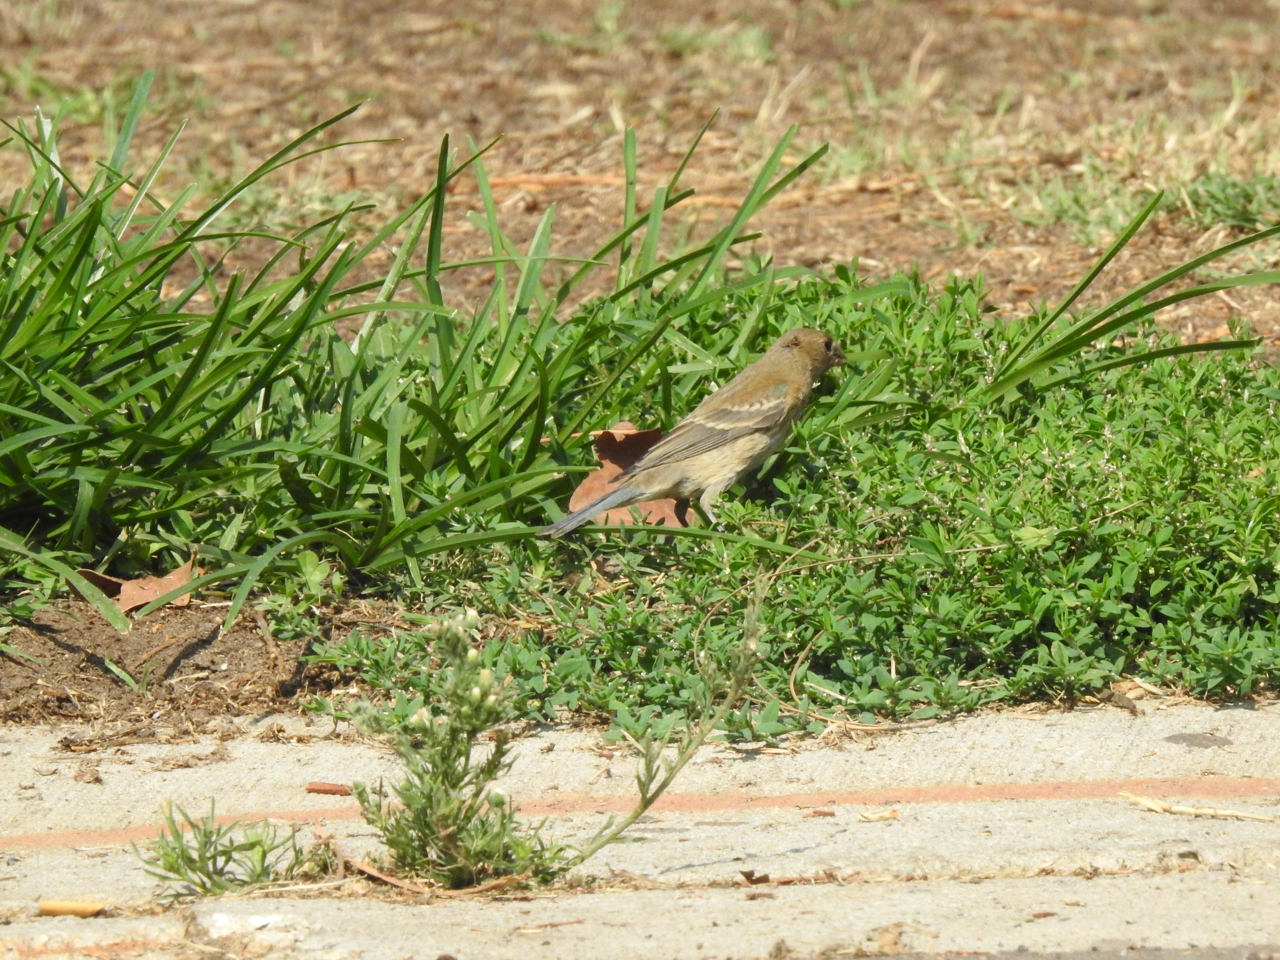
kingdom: Animalia
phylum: Chordata
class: Aves
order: Passeriformes
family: Cardinalidae
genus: Passerina
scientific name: Passerina amoena
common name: Lazuli bunting
